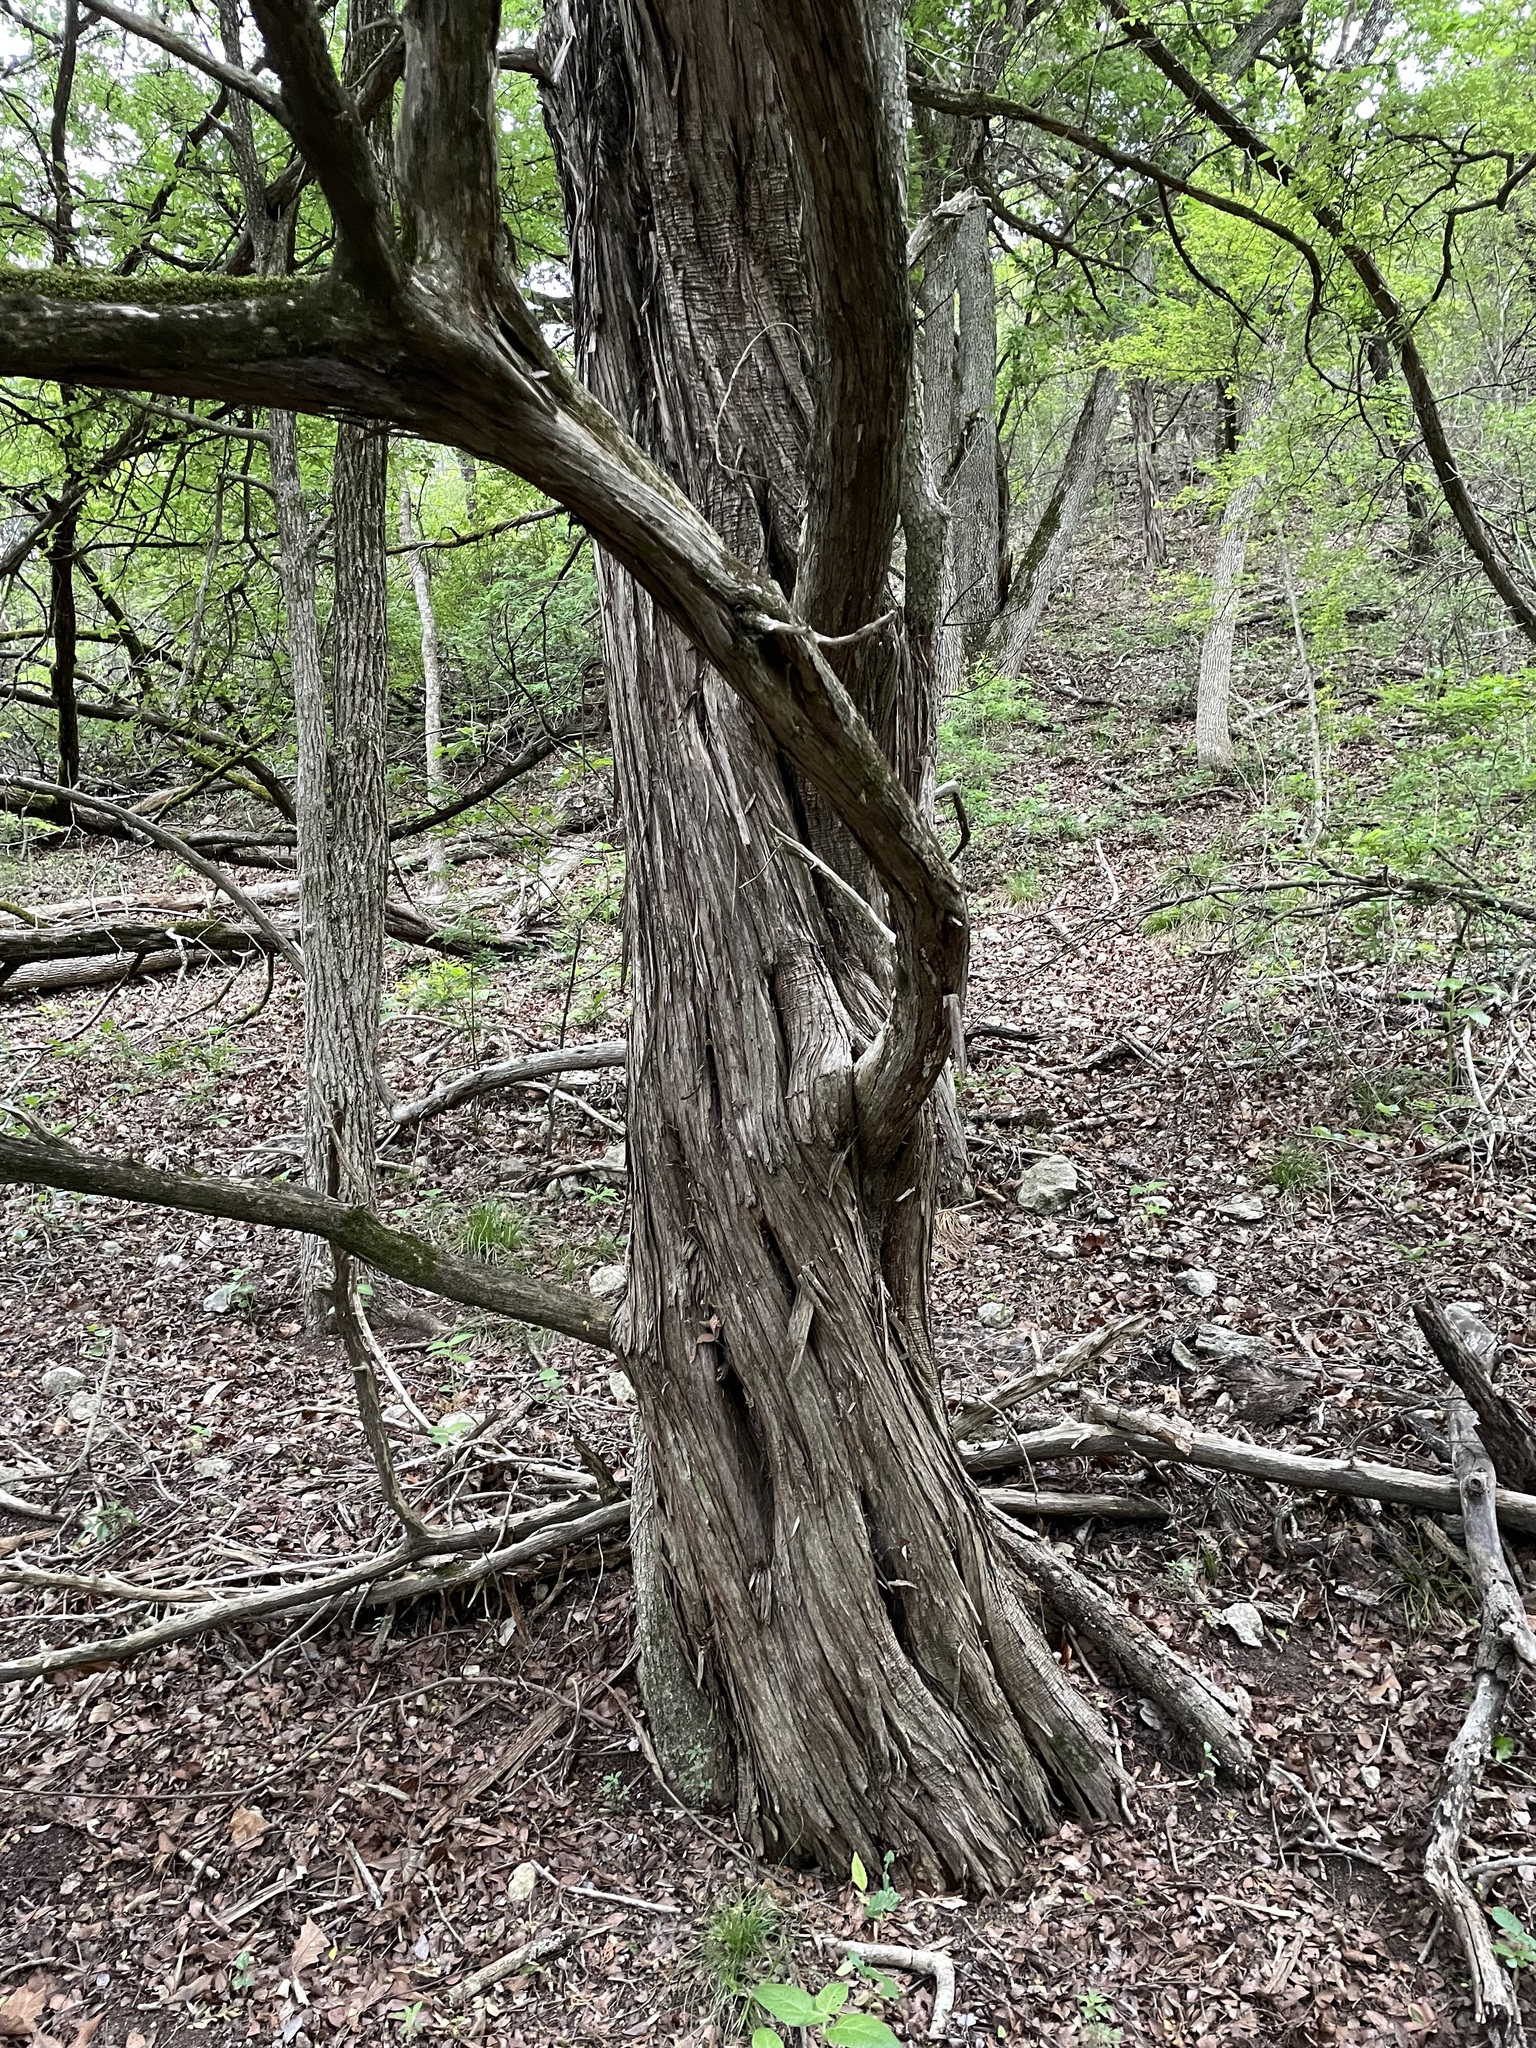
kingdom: Plantae
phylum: Tracheophyta
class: Pinopsida
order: Pinales
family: Cupressaceae
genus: Juniperus
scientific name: Juniperus ashei
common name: Mexican juniper
